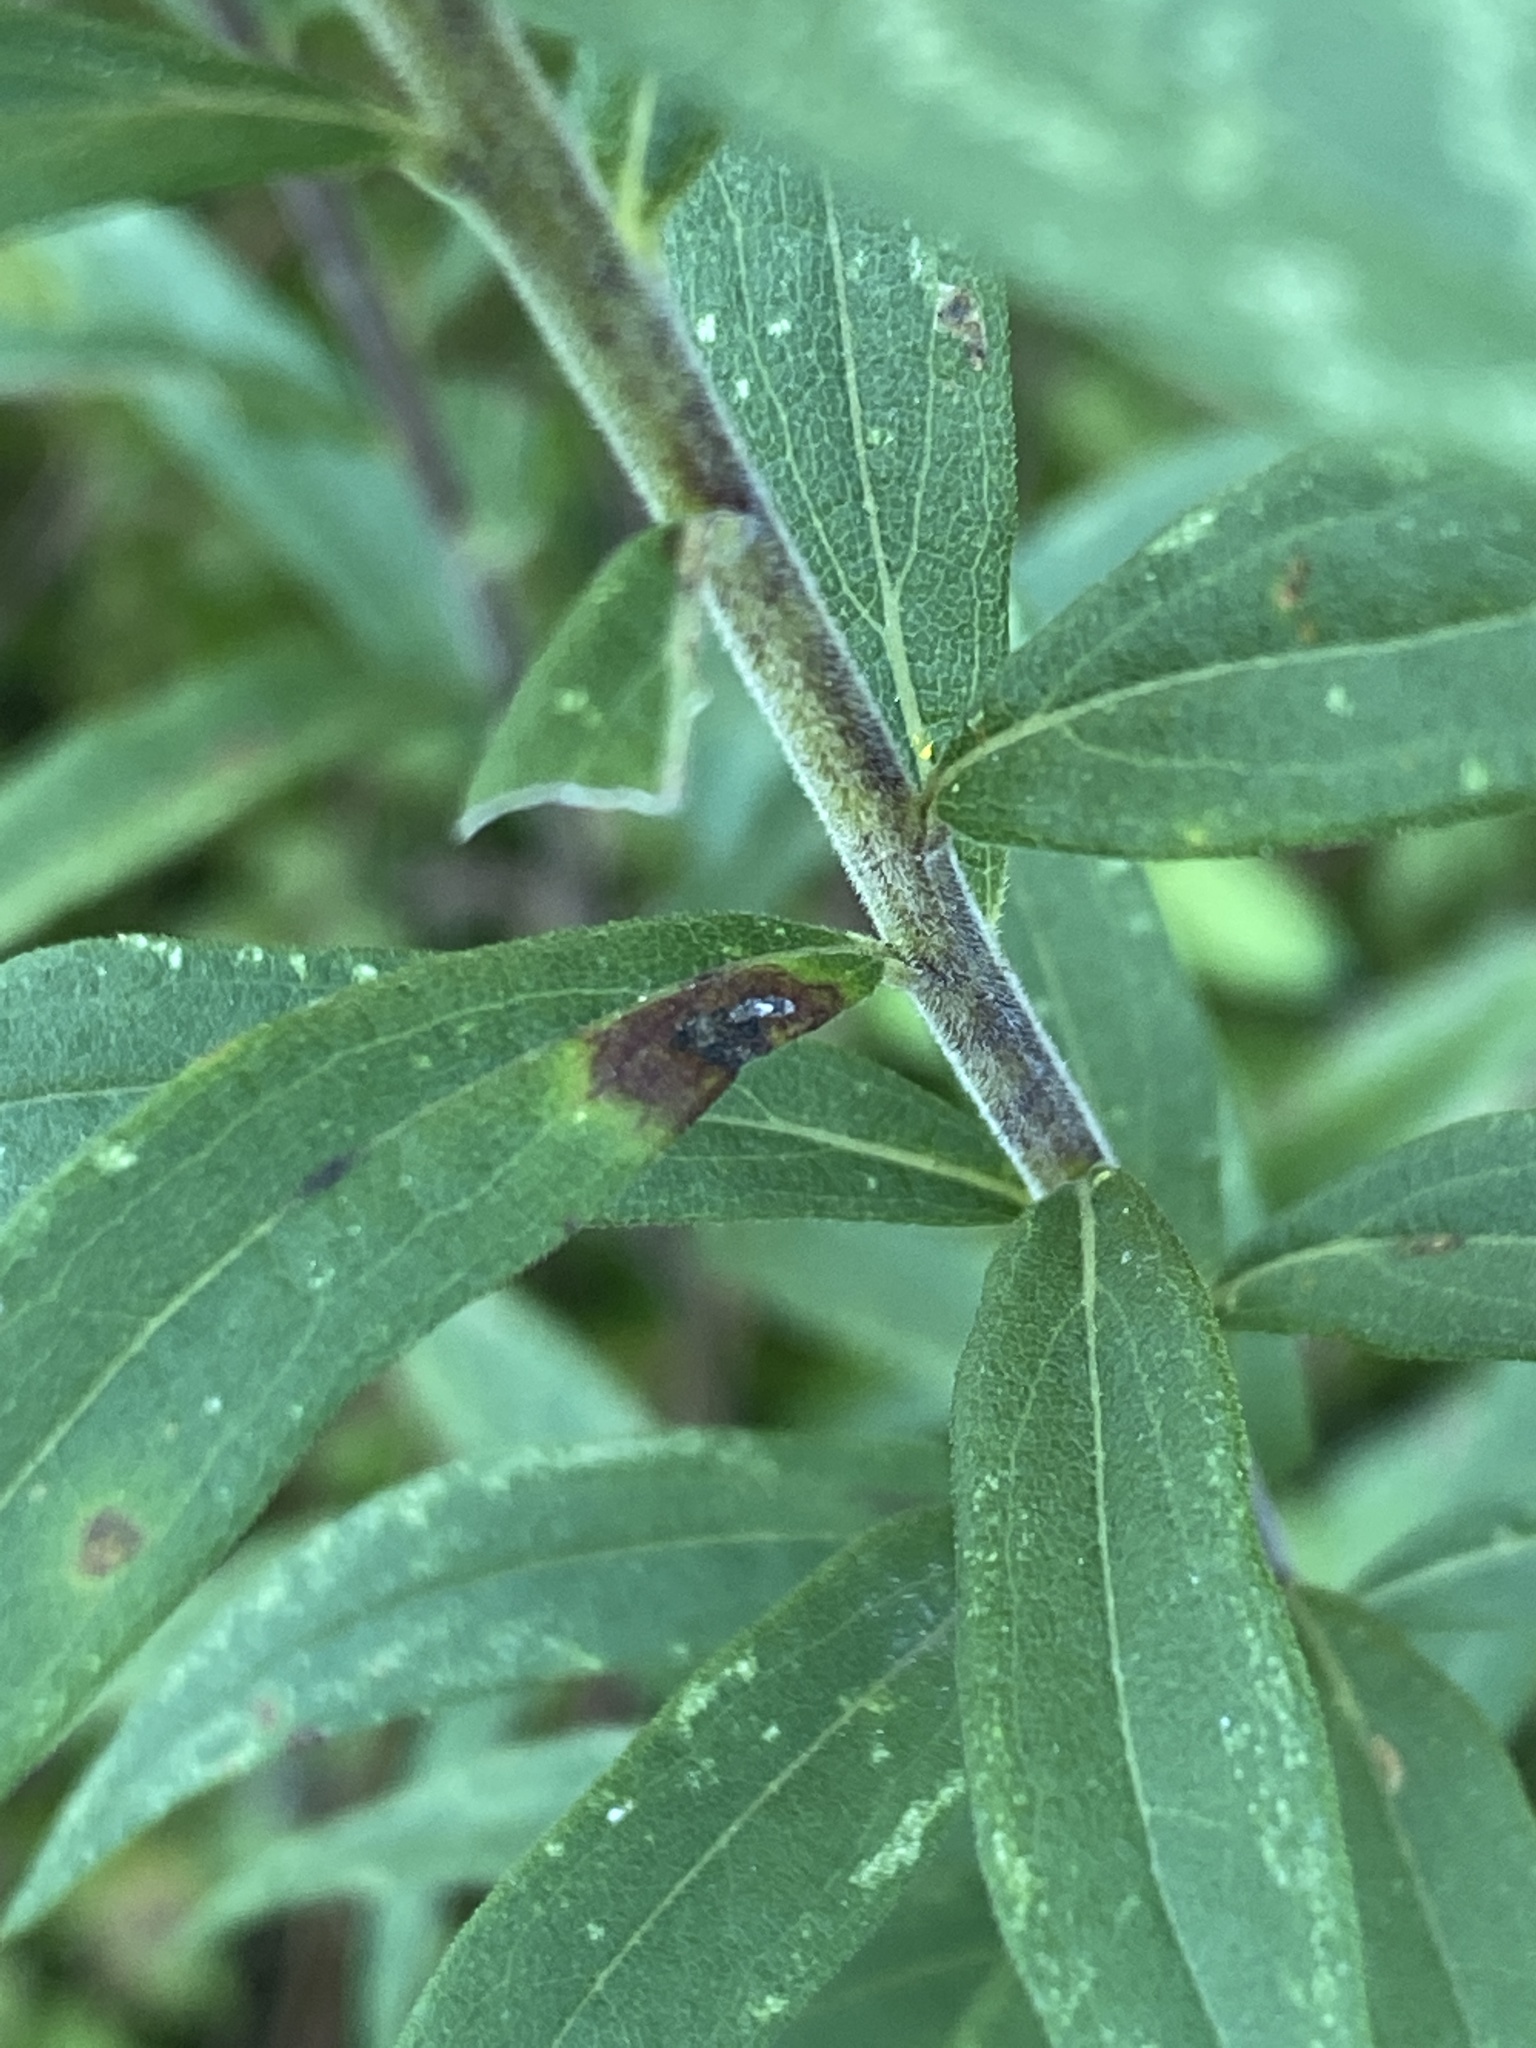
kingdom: Plantae
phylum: Tracheophyta
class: Magnoliopsida
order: Asterales
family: Asteraceae
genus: Solidago
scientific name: Solidago rugosa
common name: Rough-stemmed goldenrod
